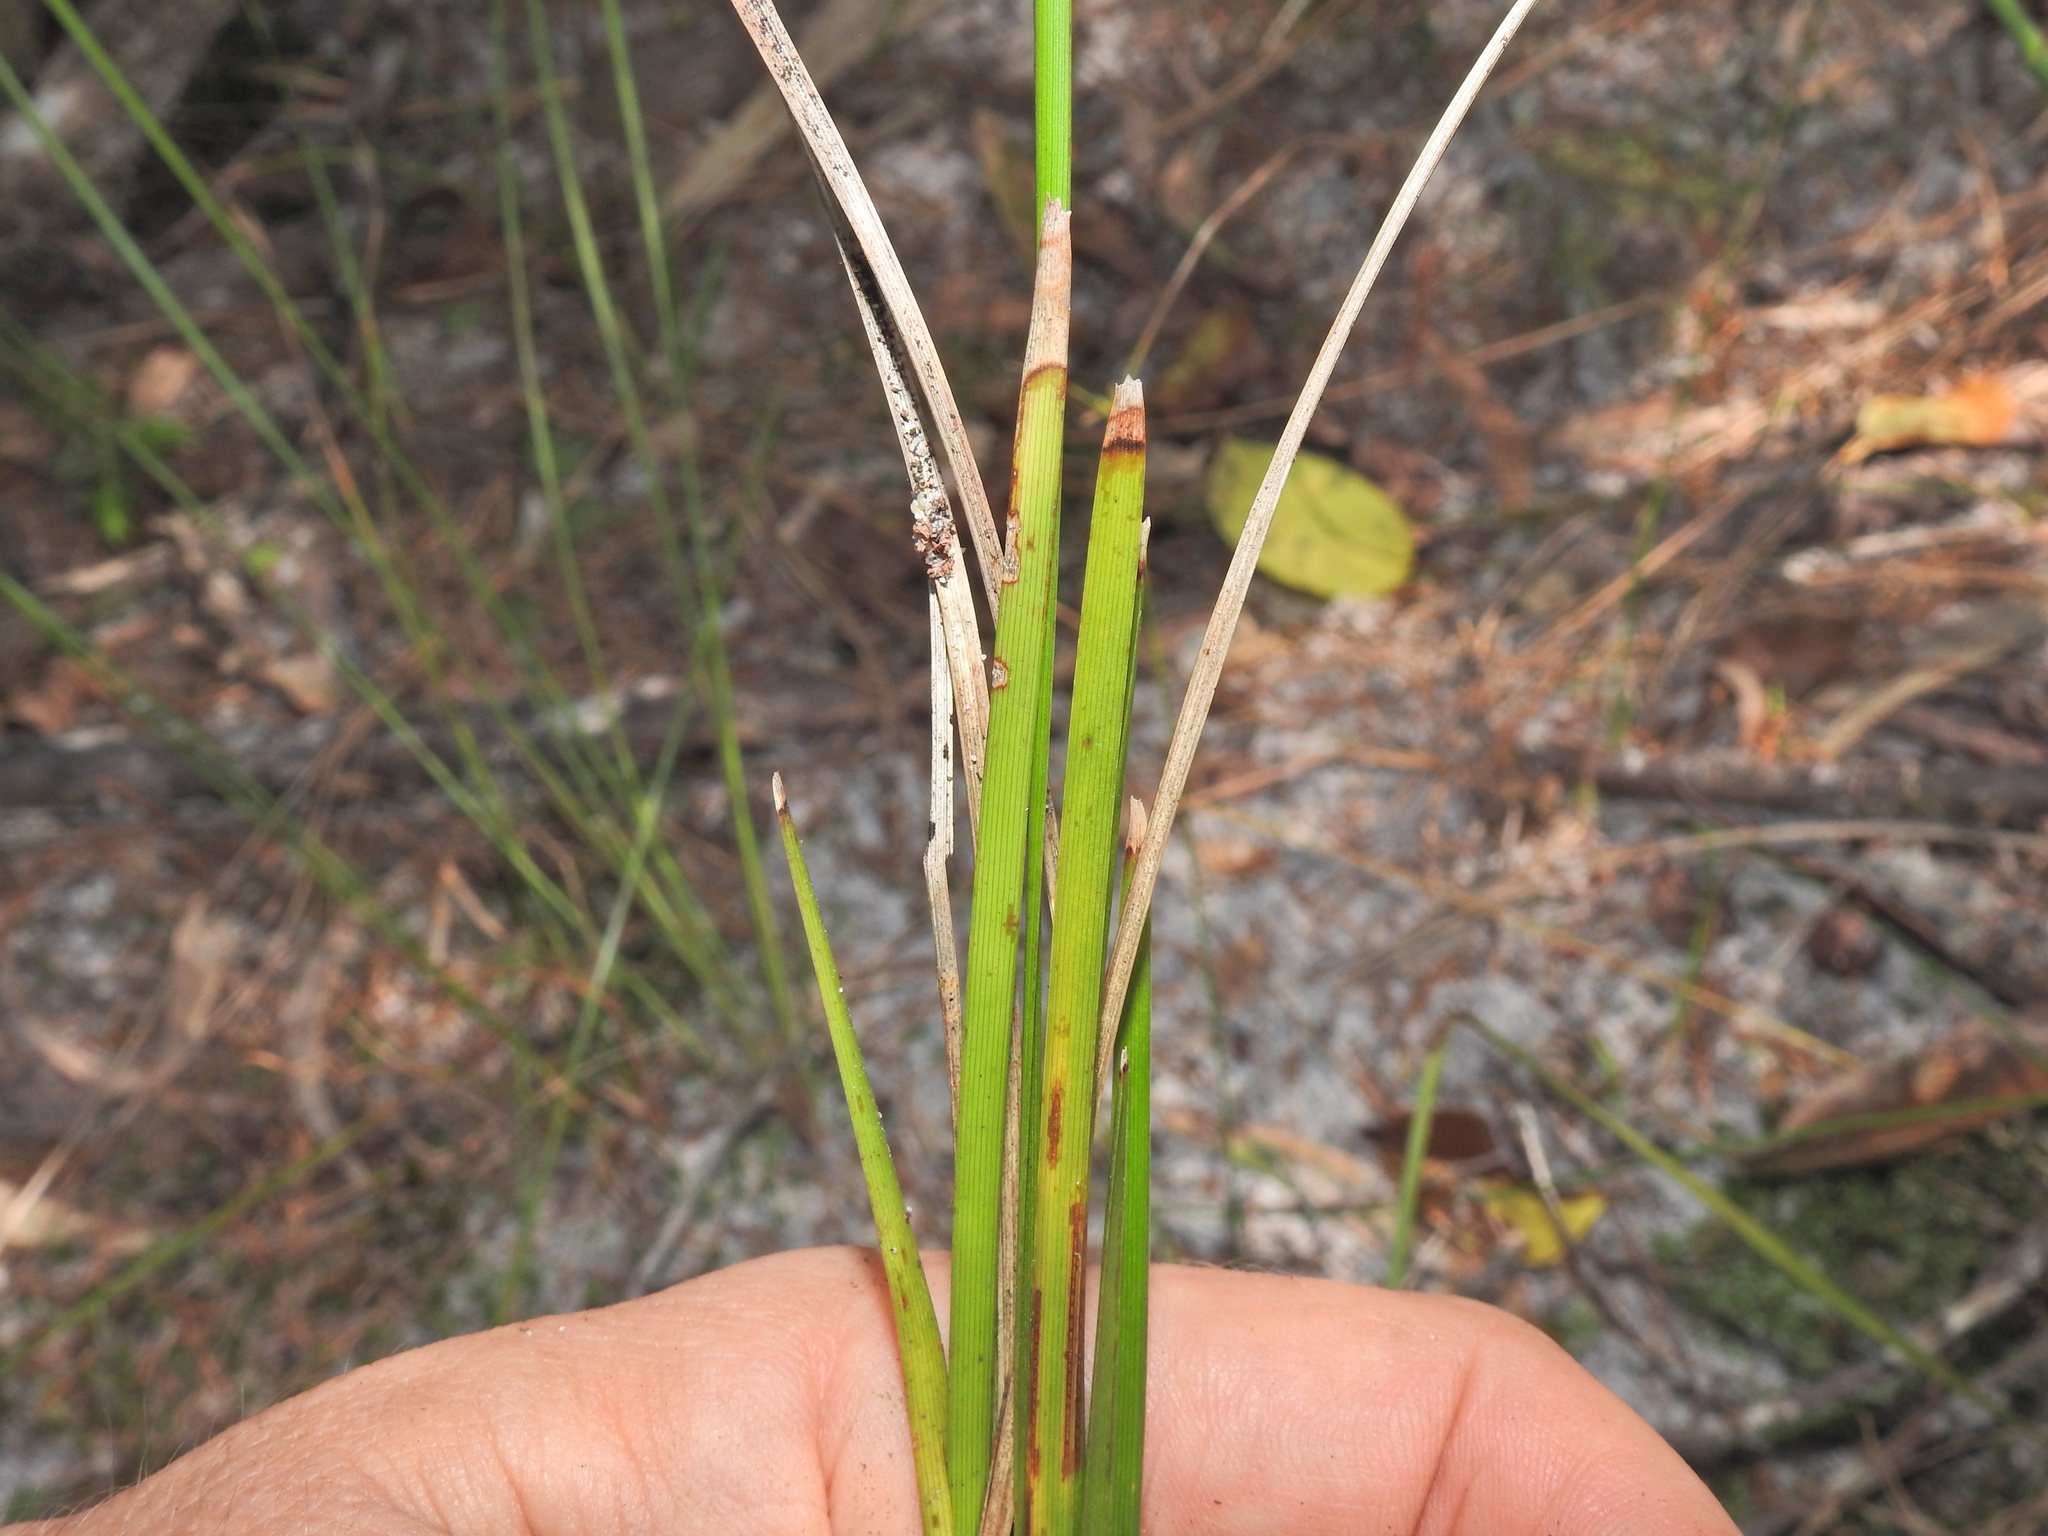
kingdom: Plantae
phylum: Tracheophyta
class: Liliopsida
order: Asparagales
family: Asparagaceae
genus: Lomandra
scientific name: Lomandra confertifolia
